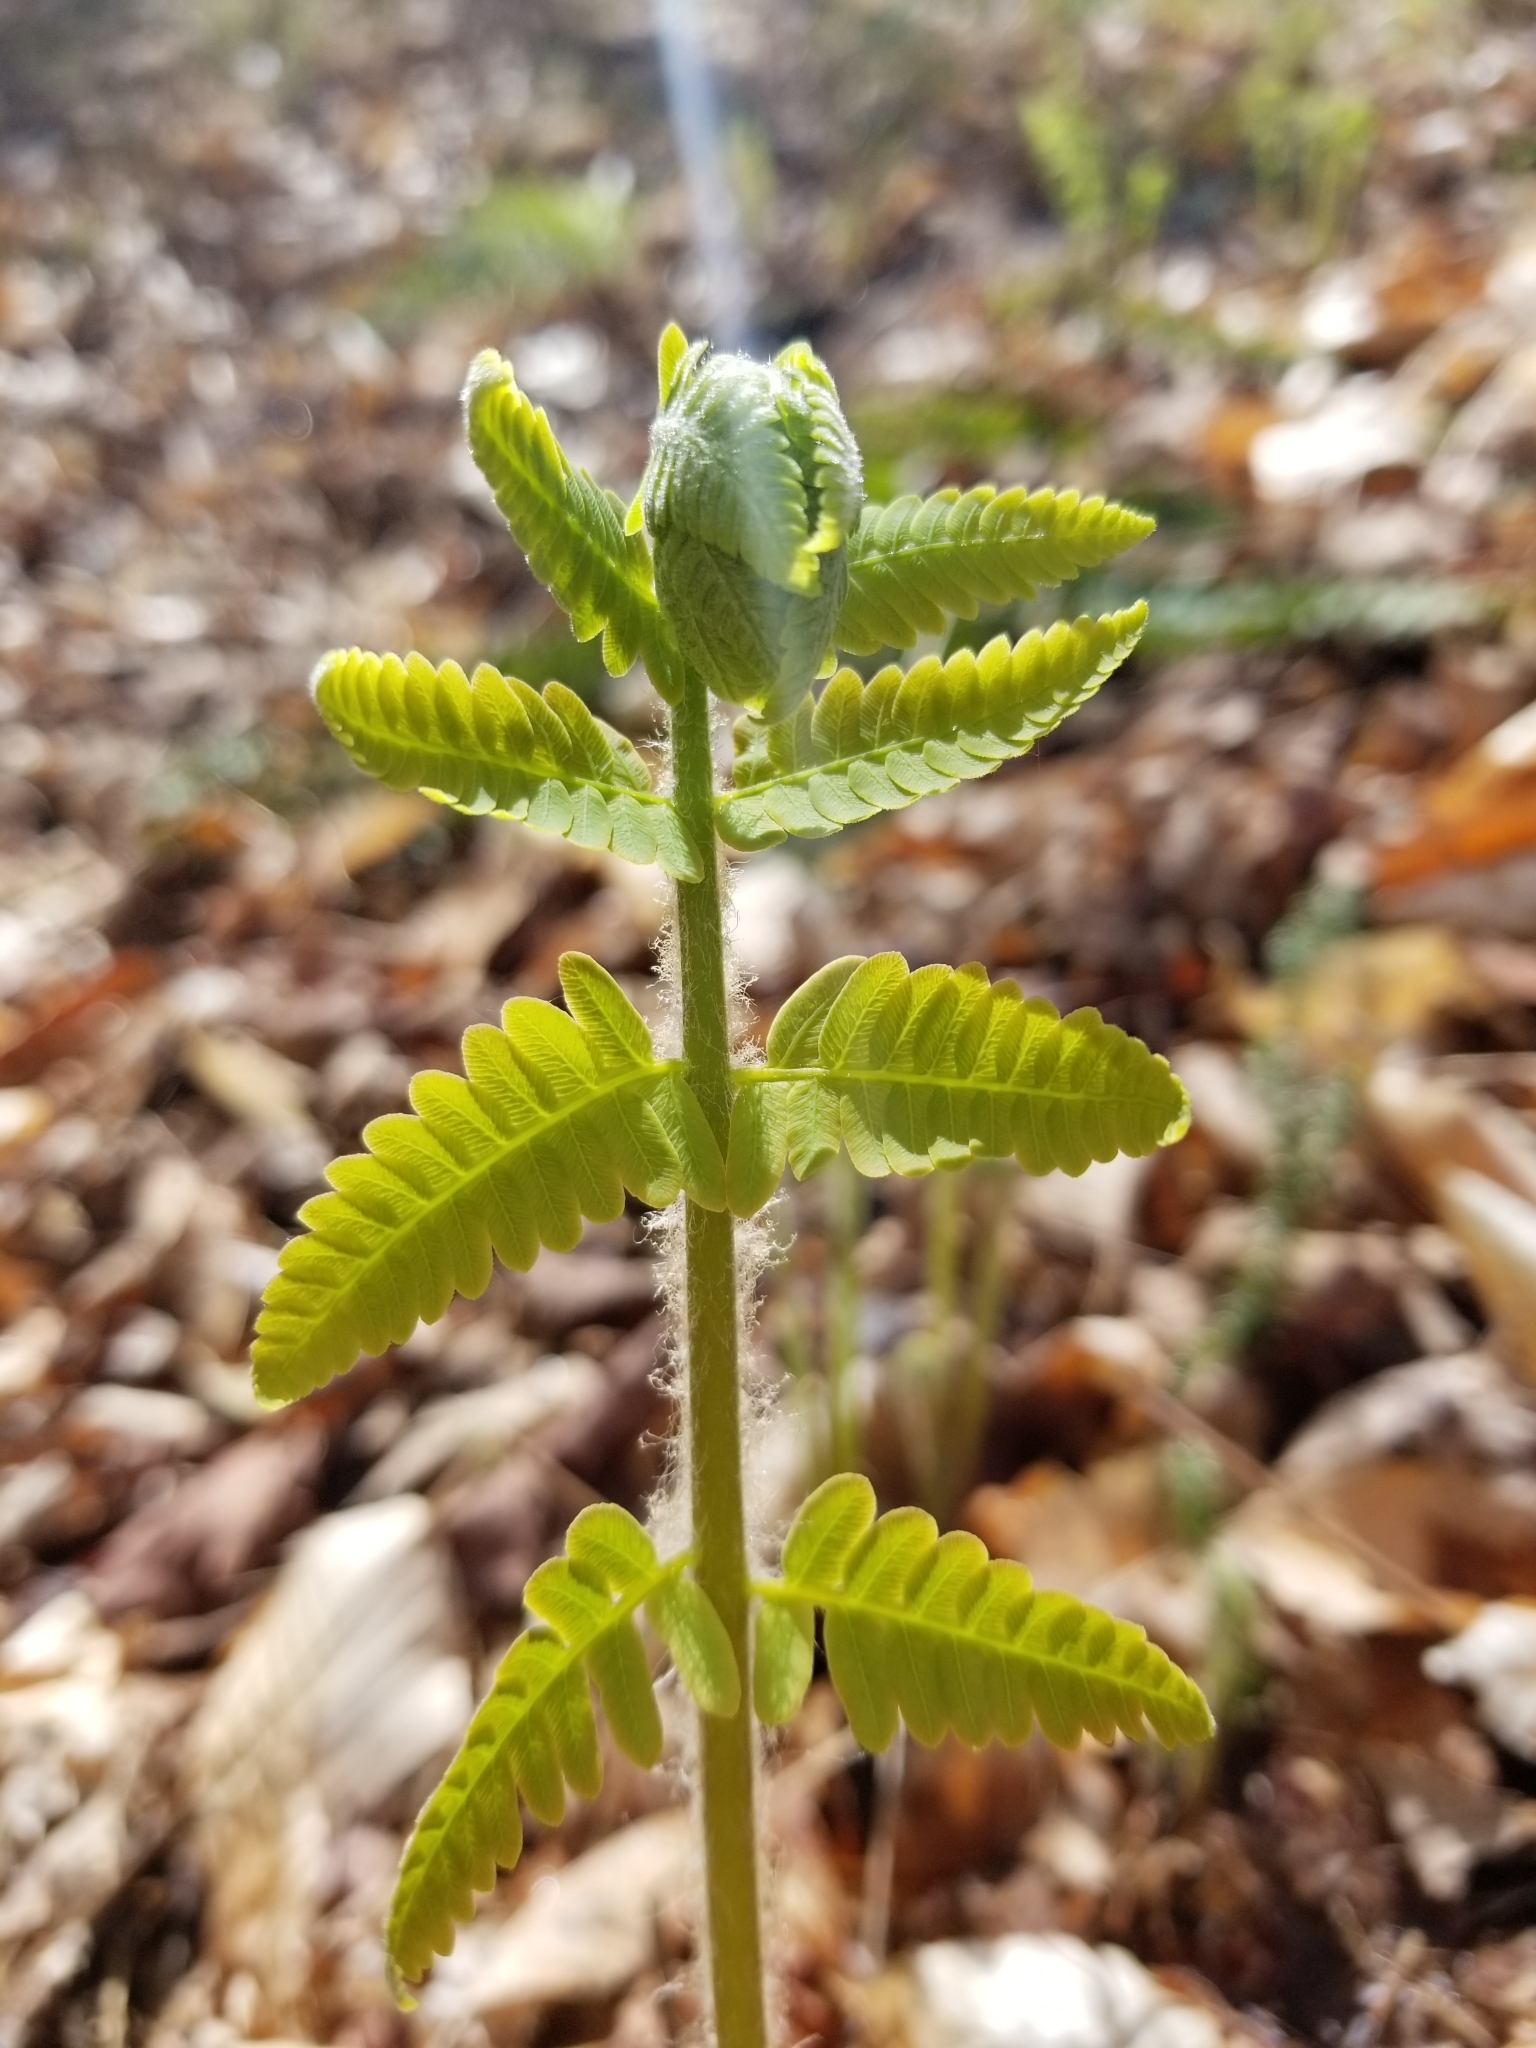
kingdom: Plantae
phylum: Tracheophyta
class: Polypodiopsida
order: Osmundales
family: Osmundaceae
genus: Claytosmunda
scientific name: Claytosmunda claytoniana
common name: Clayton's fern
